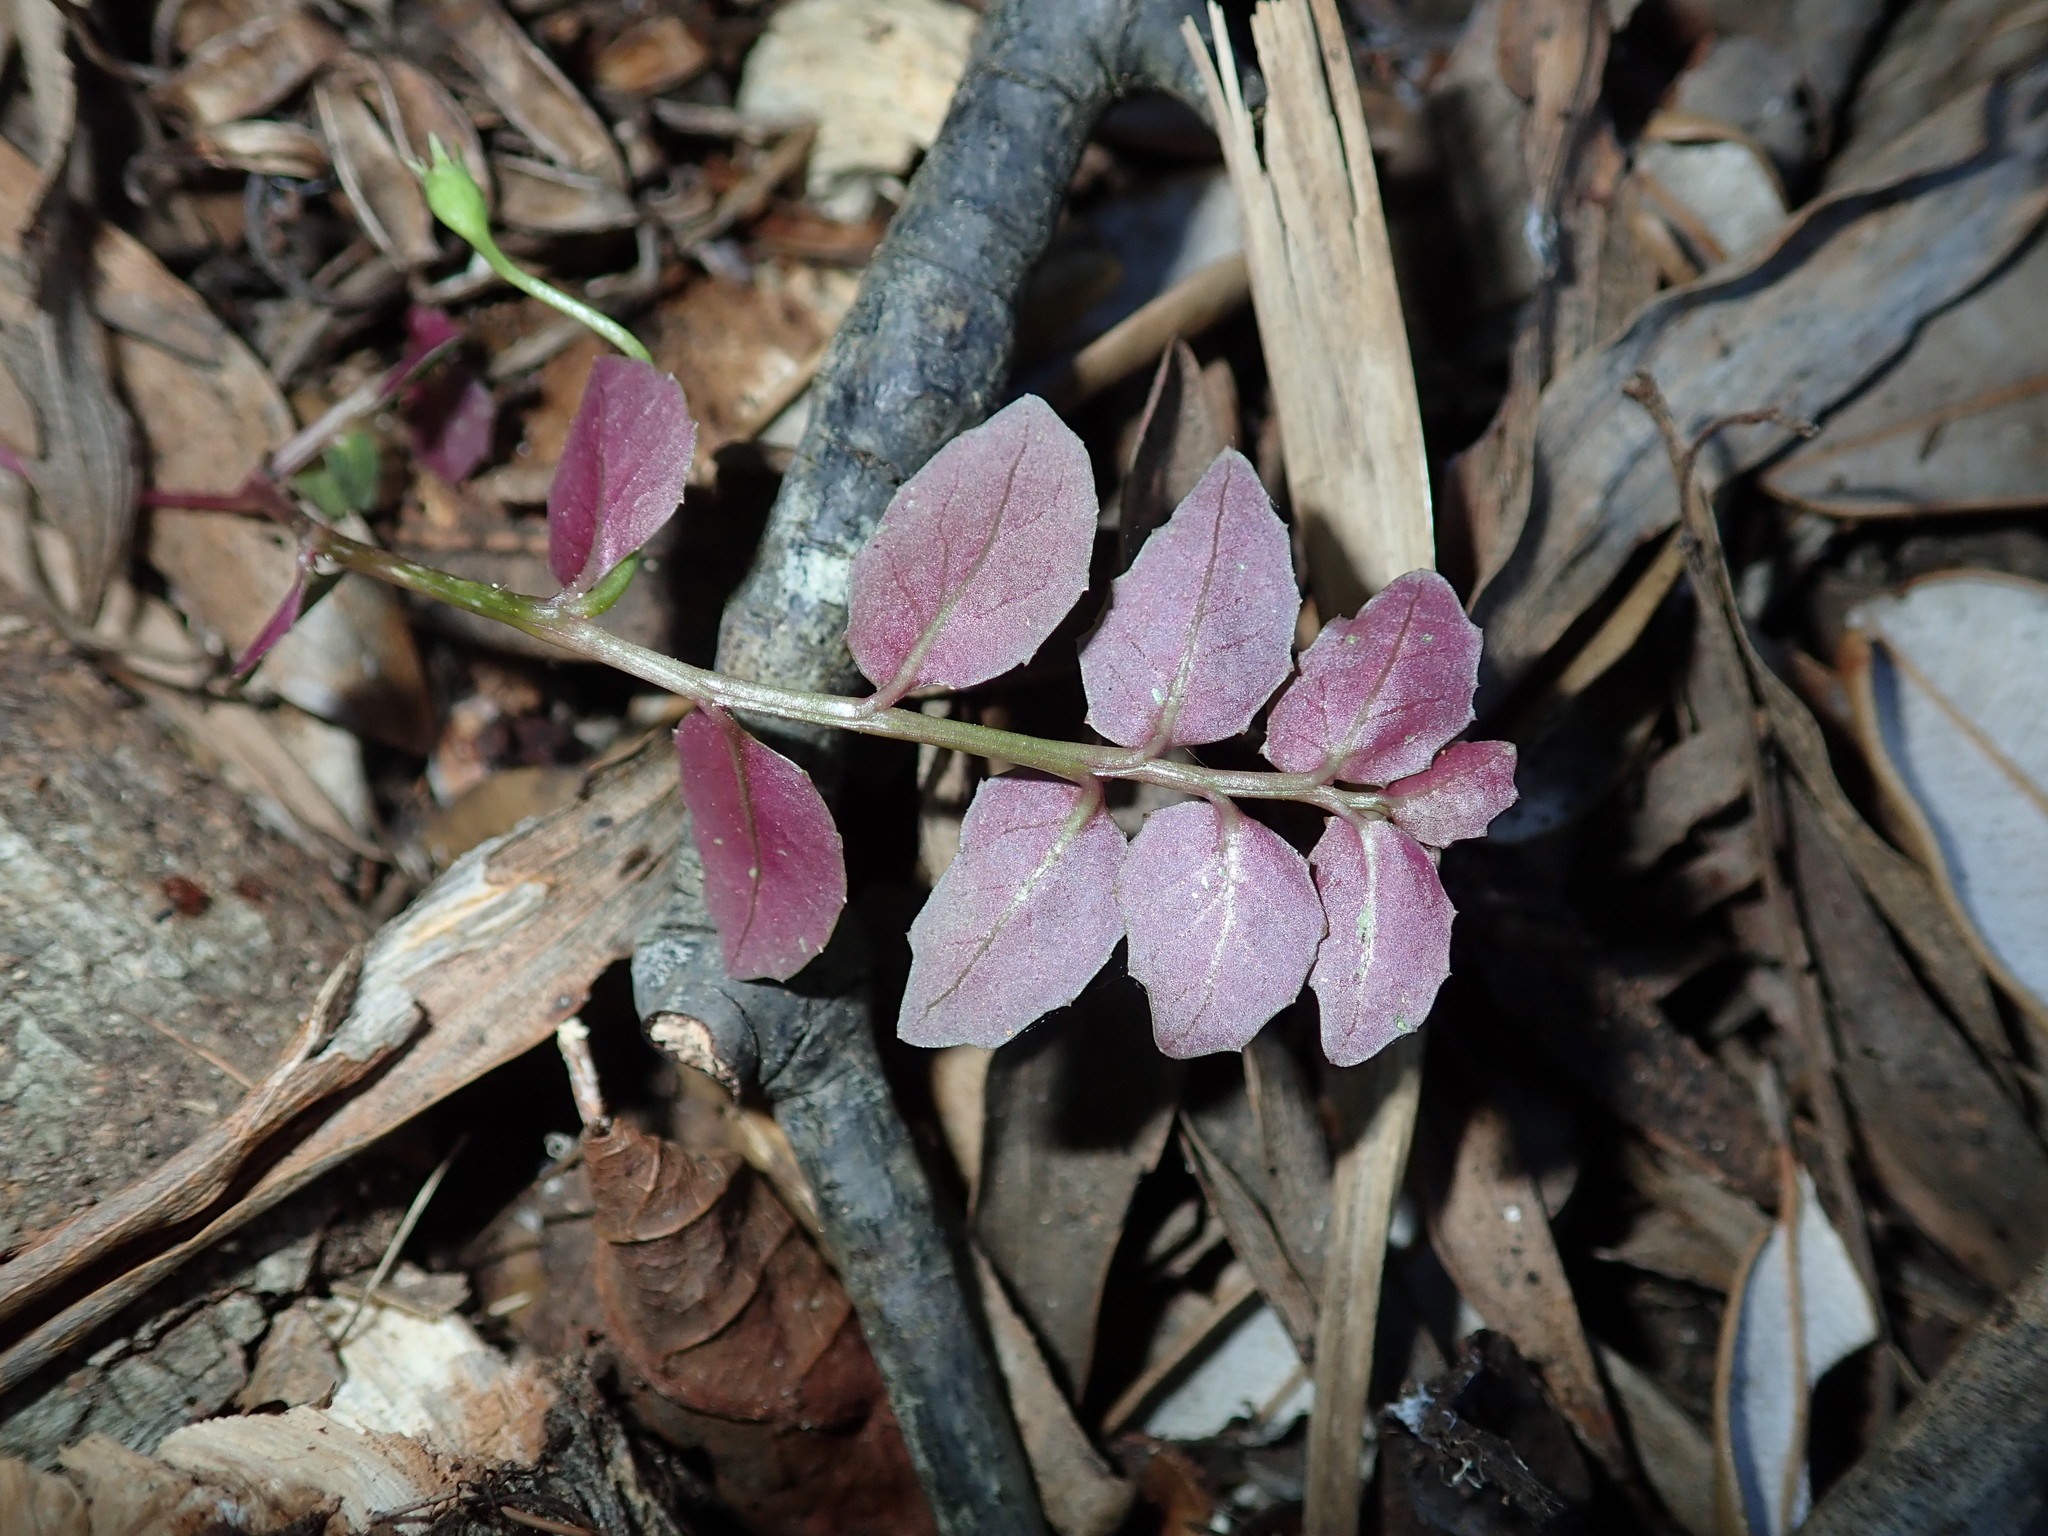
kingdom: Plantae
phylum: Tracheophyta
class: Magnoliopsida
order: Asterales
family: Campanulaceae
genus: Lobelia
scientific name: Lobelia purpurascens
